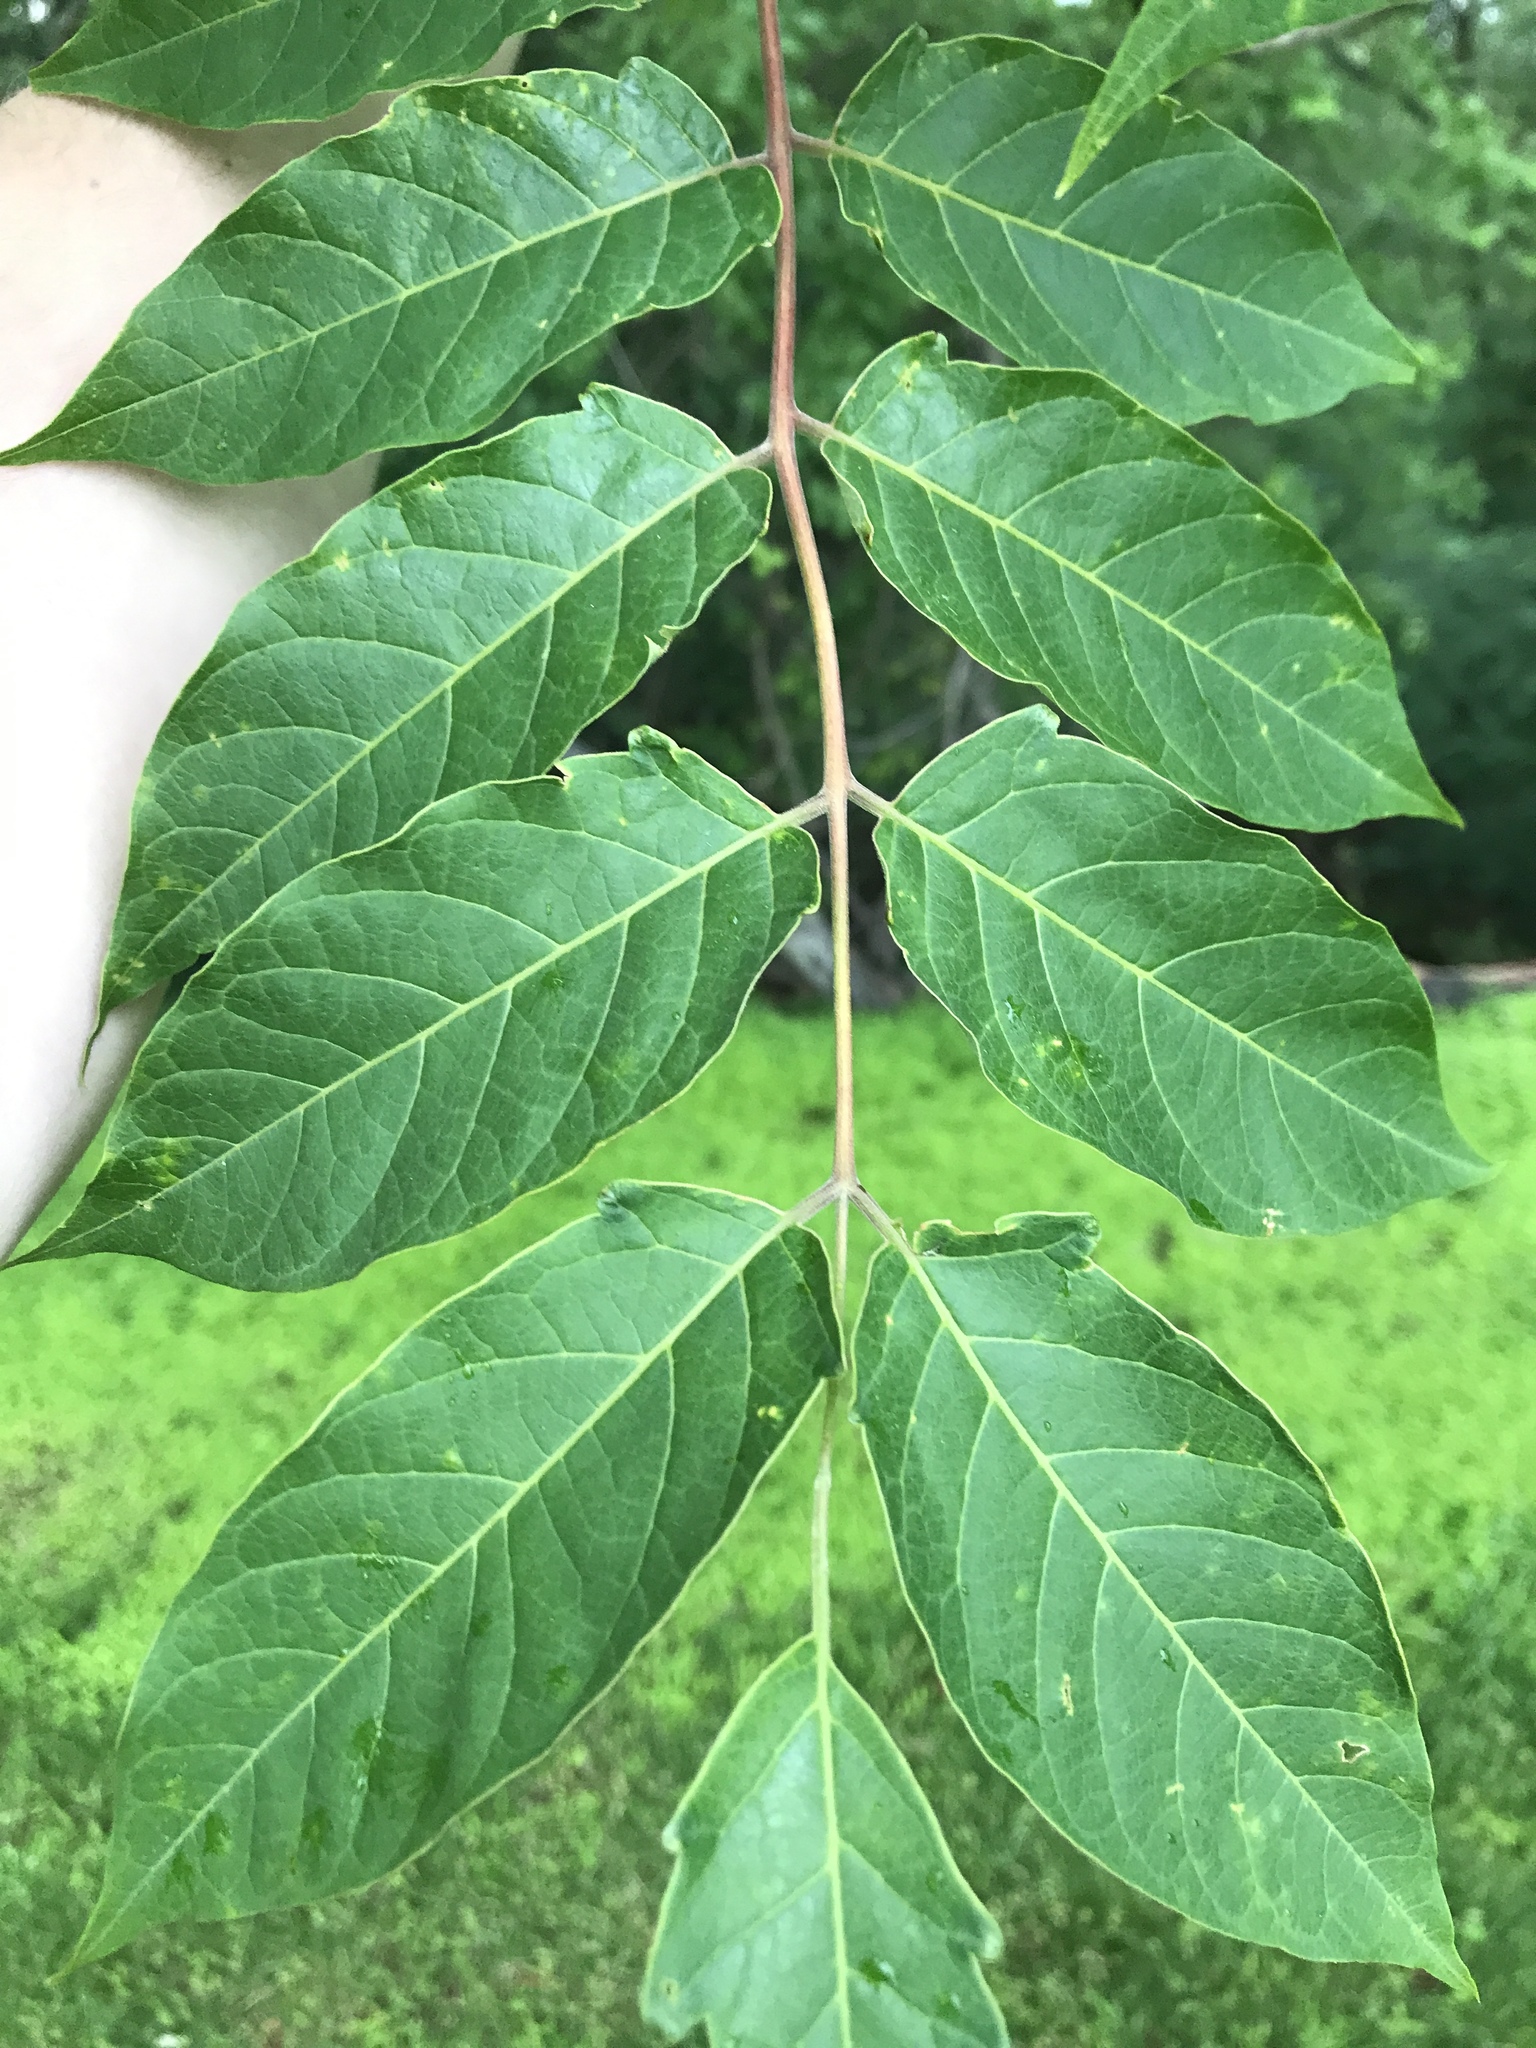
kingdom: Plantae
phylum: Tracheophyta
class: Magnoliopsida
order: Sapindales
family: Simaroubaceae
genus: Ailanthus
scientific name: Ailanthus altissima
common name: Tree-of-heaven
